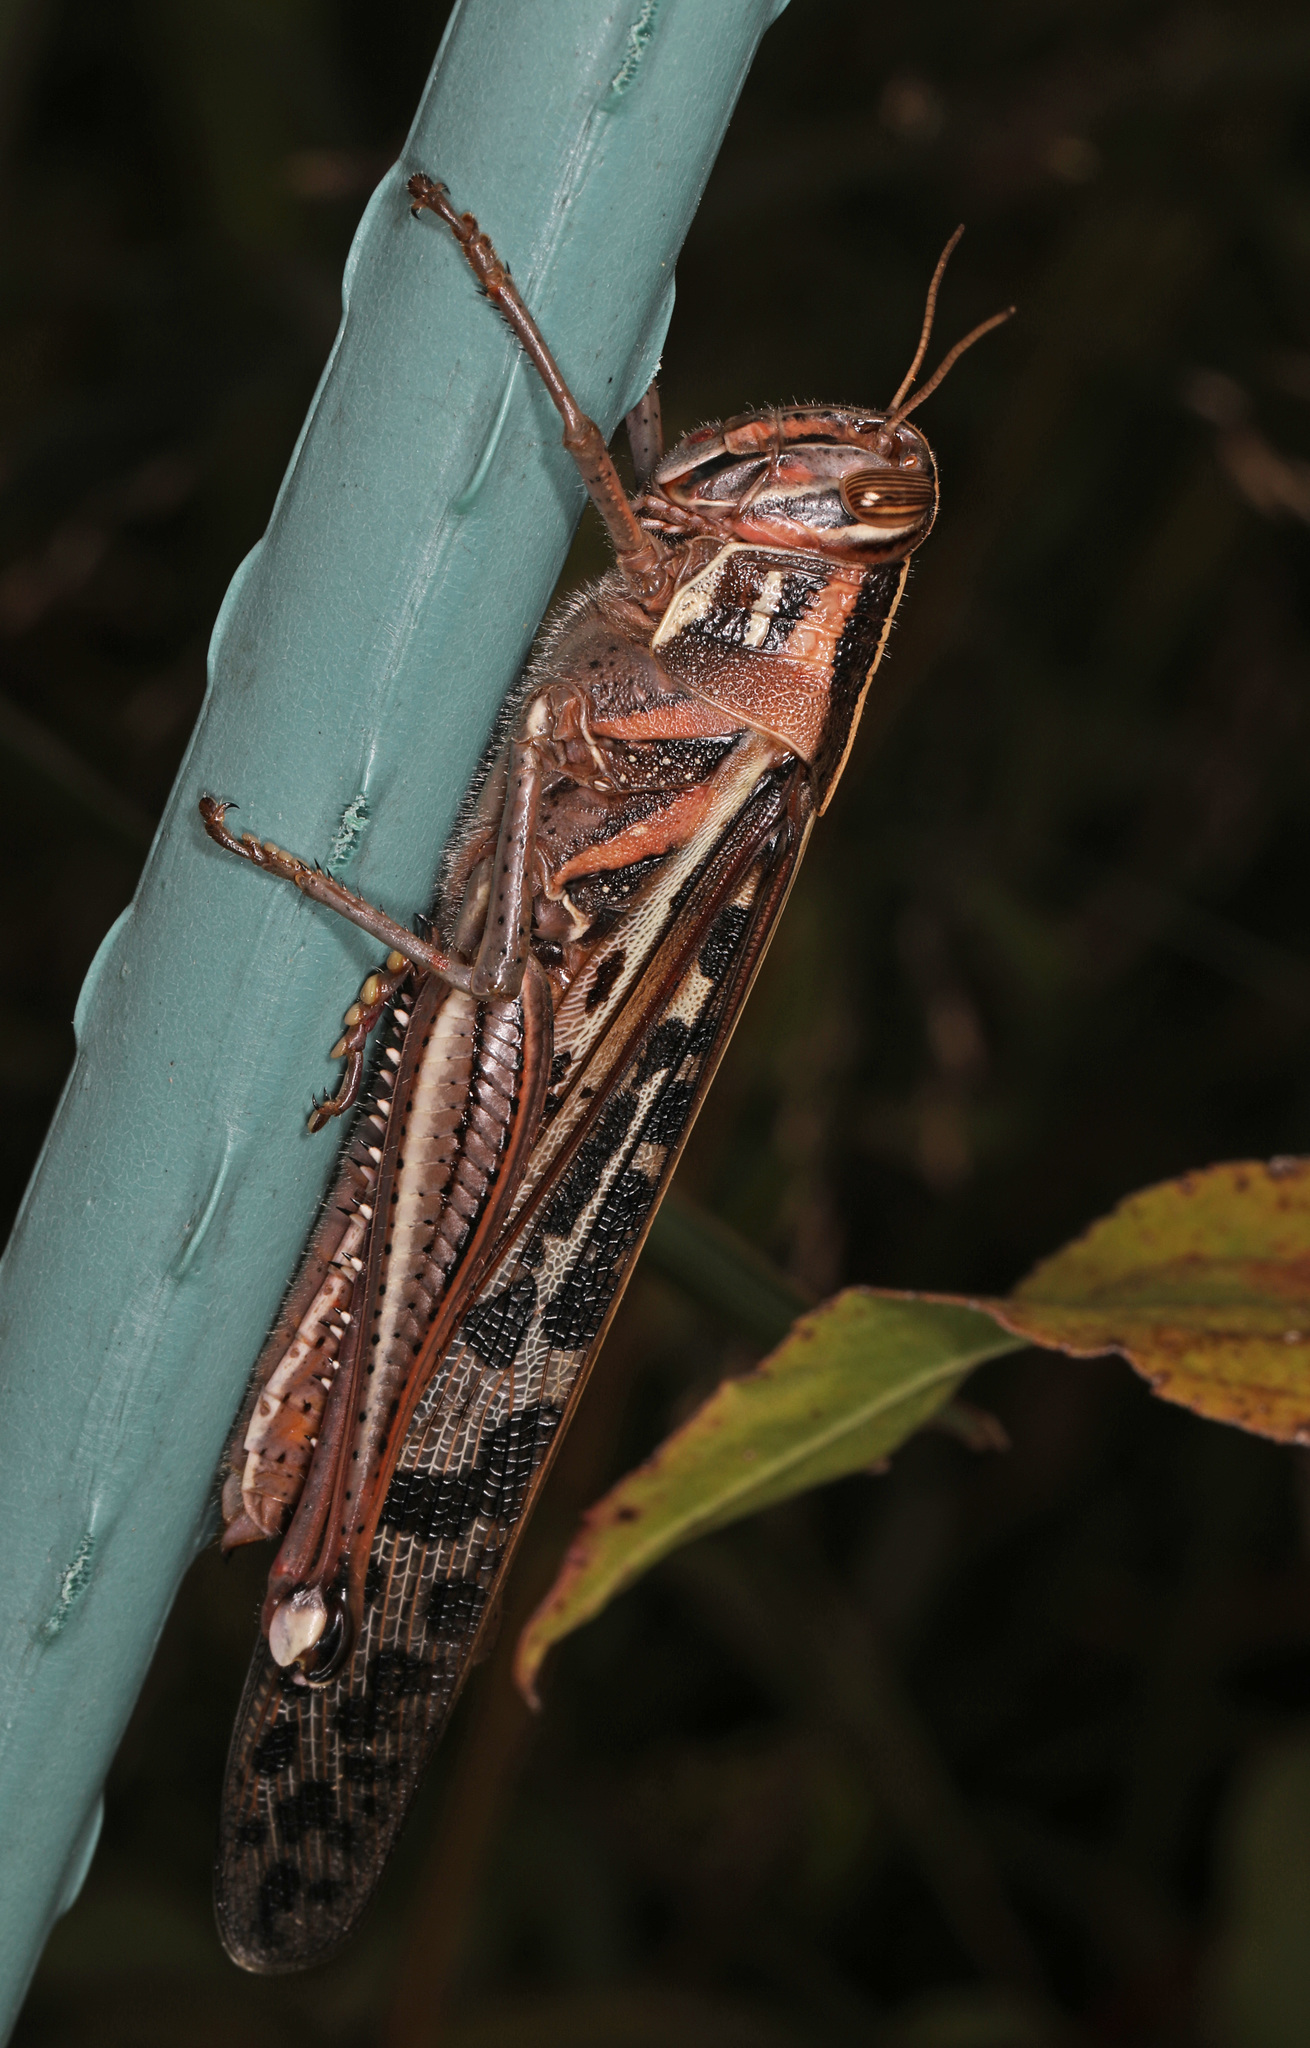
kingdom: Animalia
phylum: Arthropoda
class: Insecta
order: Orthoptera
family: Acrididae
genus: Schistocerca
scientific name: Schistocerca americana
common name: American bird locust
